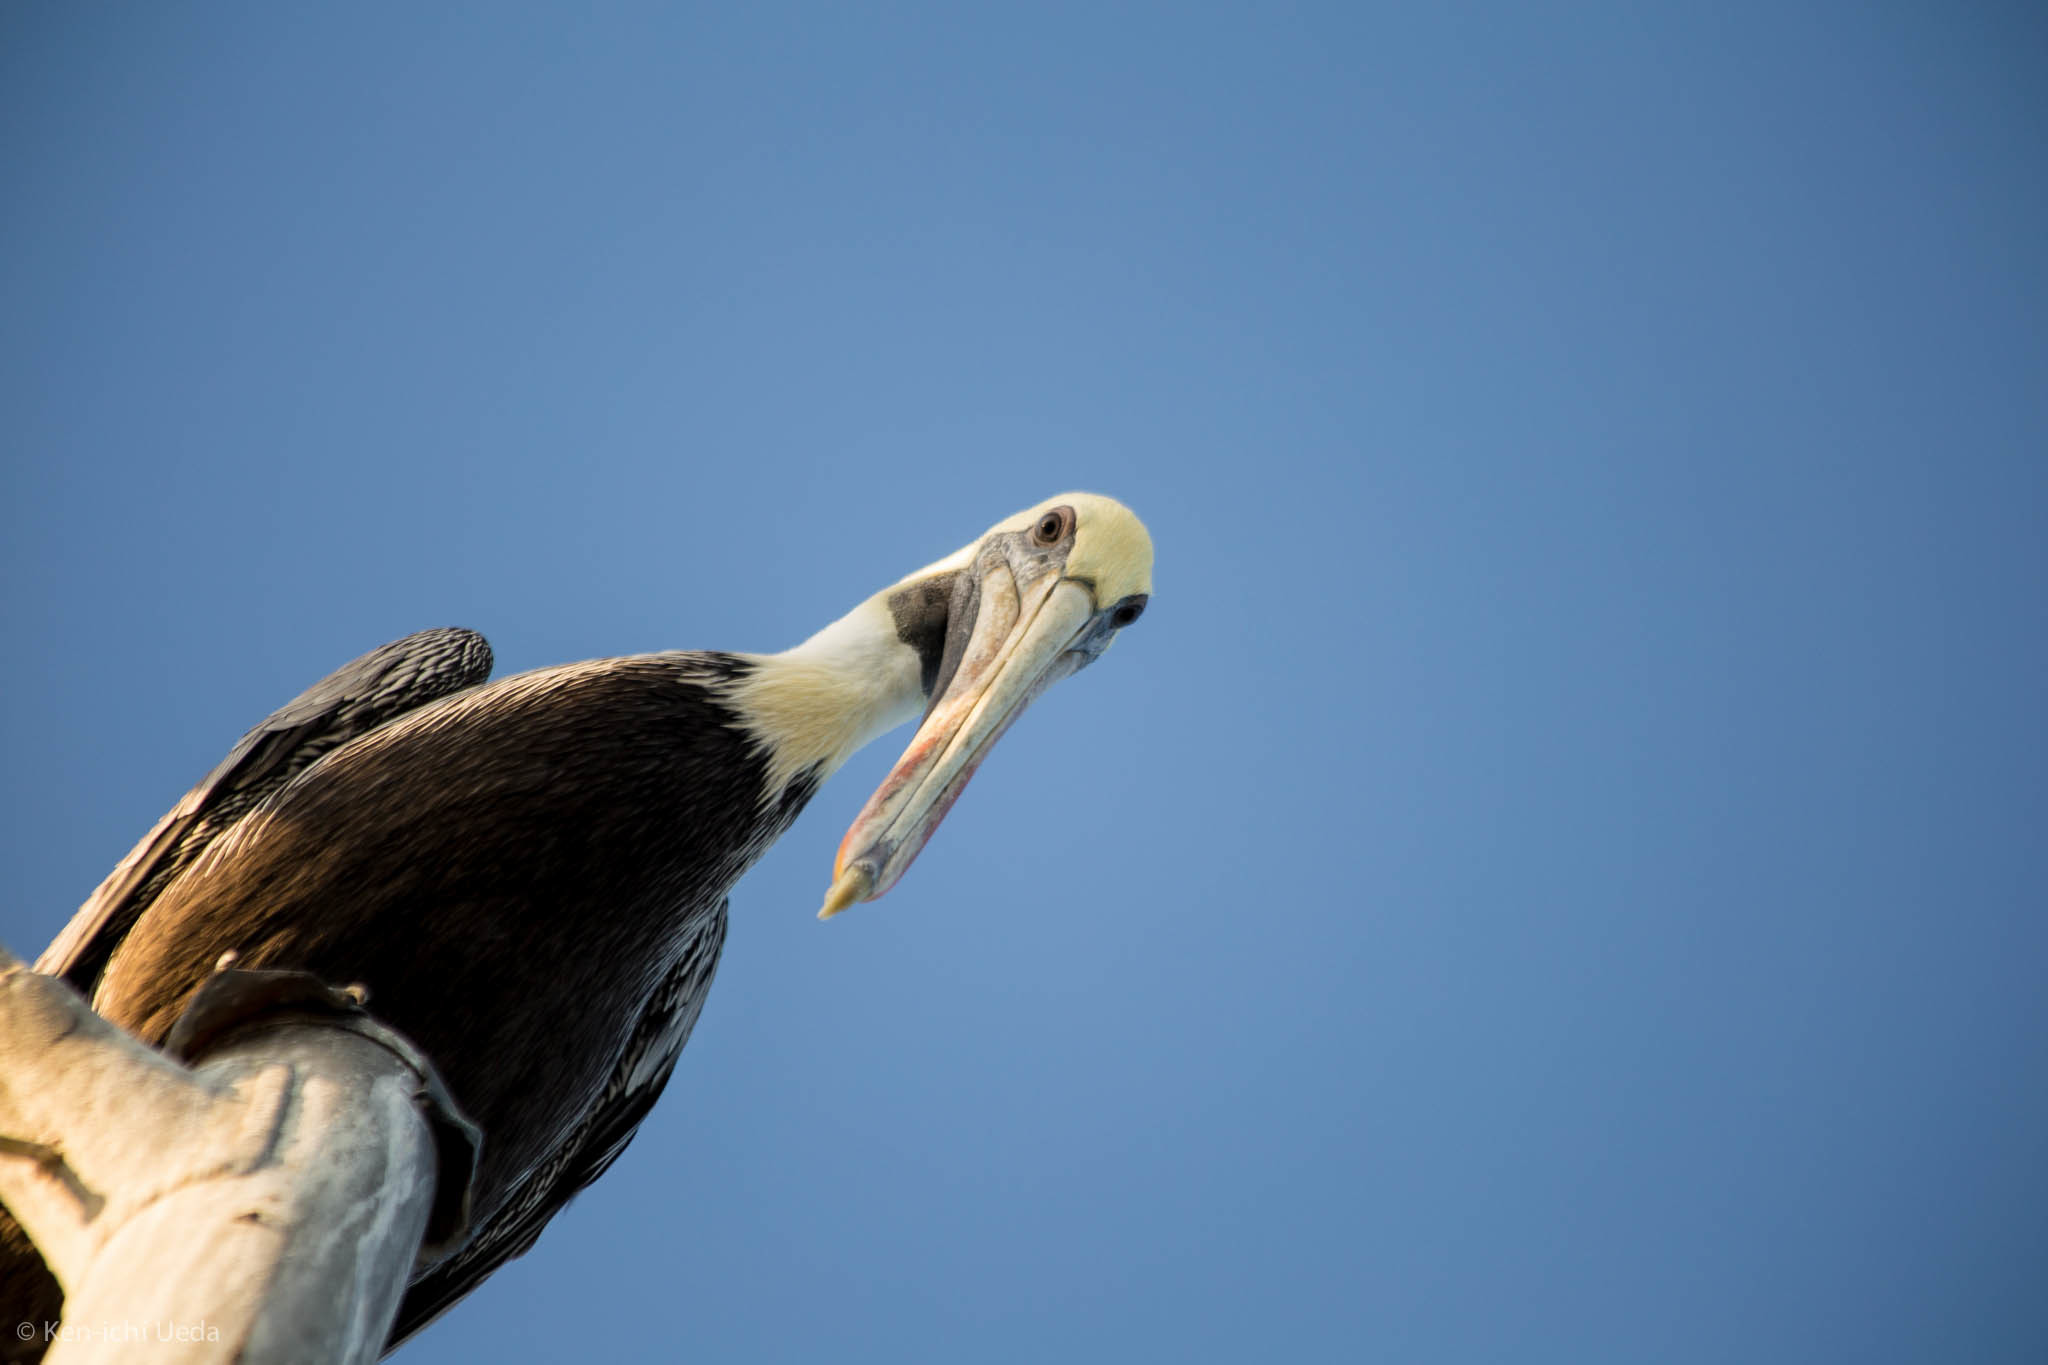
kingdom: Animalia
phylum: Chordata
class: Aves
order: Pelecaniformes
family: Pelecanidae
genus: Pelecanus
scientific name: Pelecanus occidentalis
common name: Brown pelican
